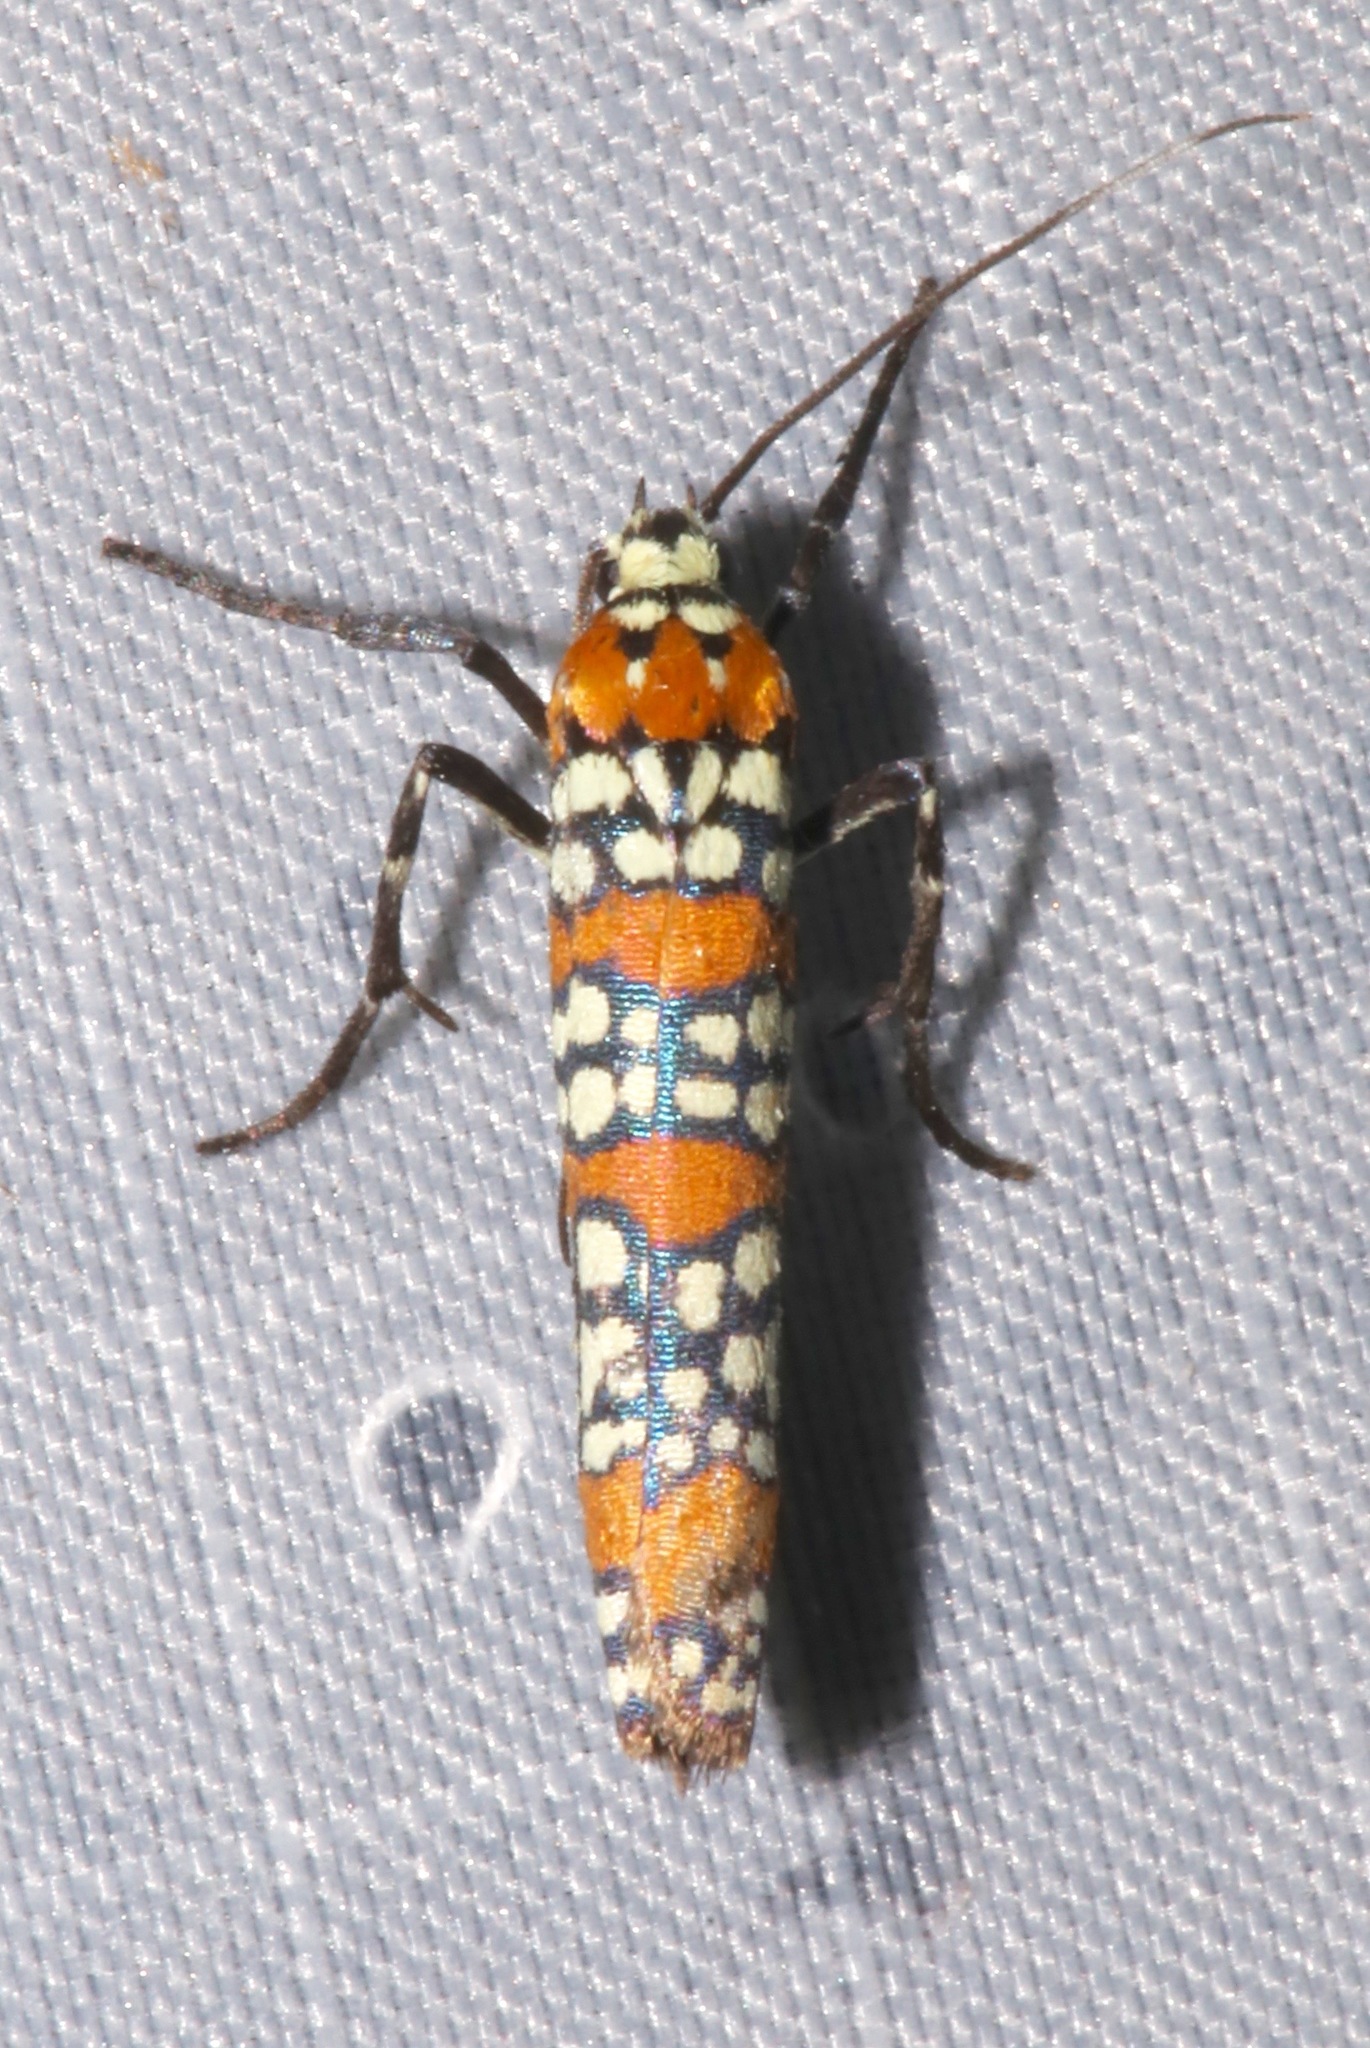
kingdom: Animalia
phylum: Arthropoda
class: Insecta
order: Lepidoptera
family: Attevidae
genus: Atteva
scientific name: Atteva punctella
